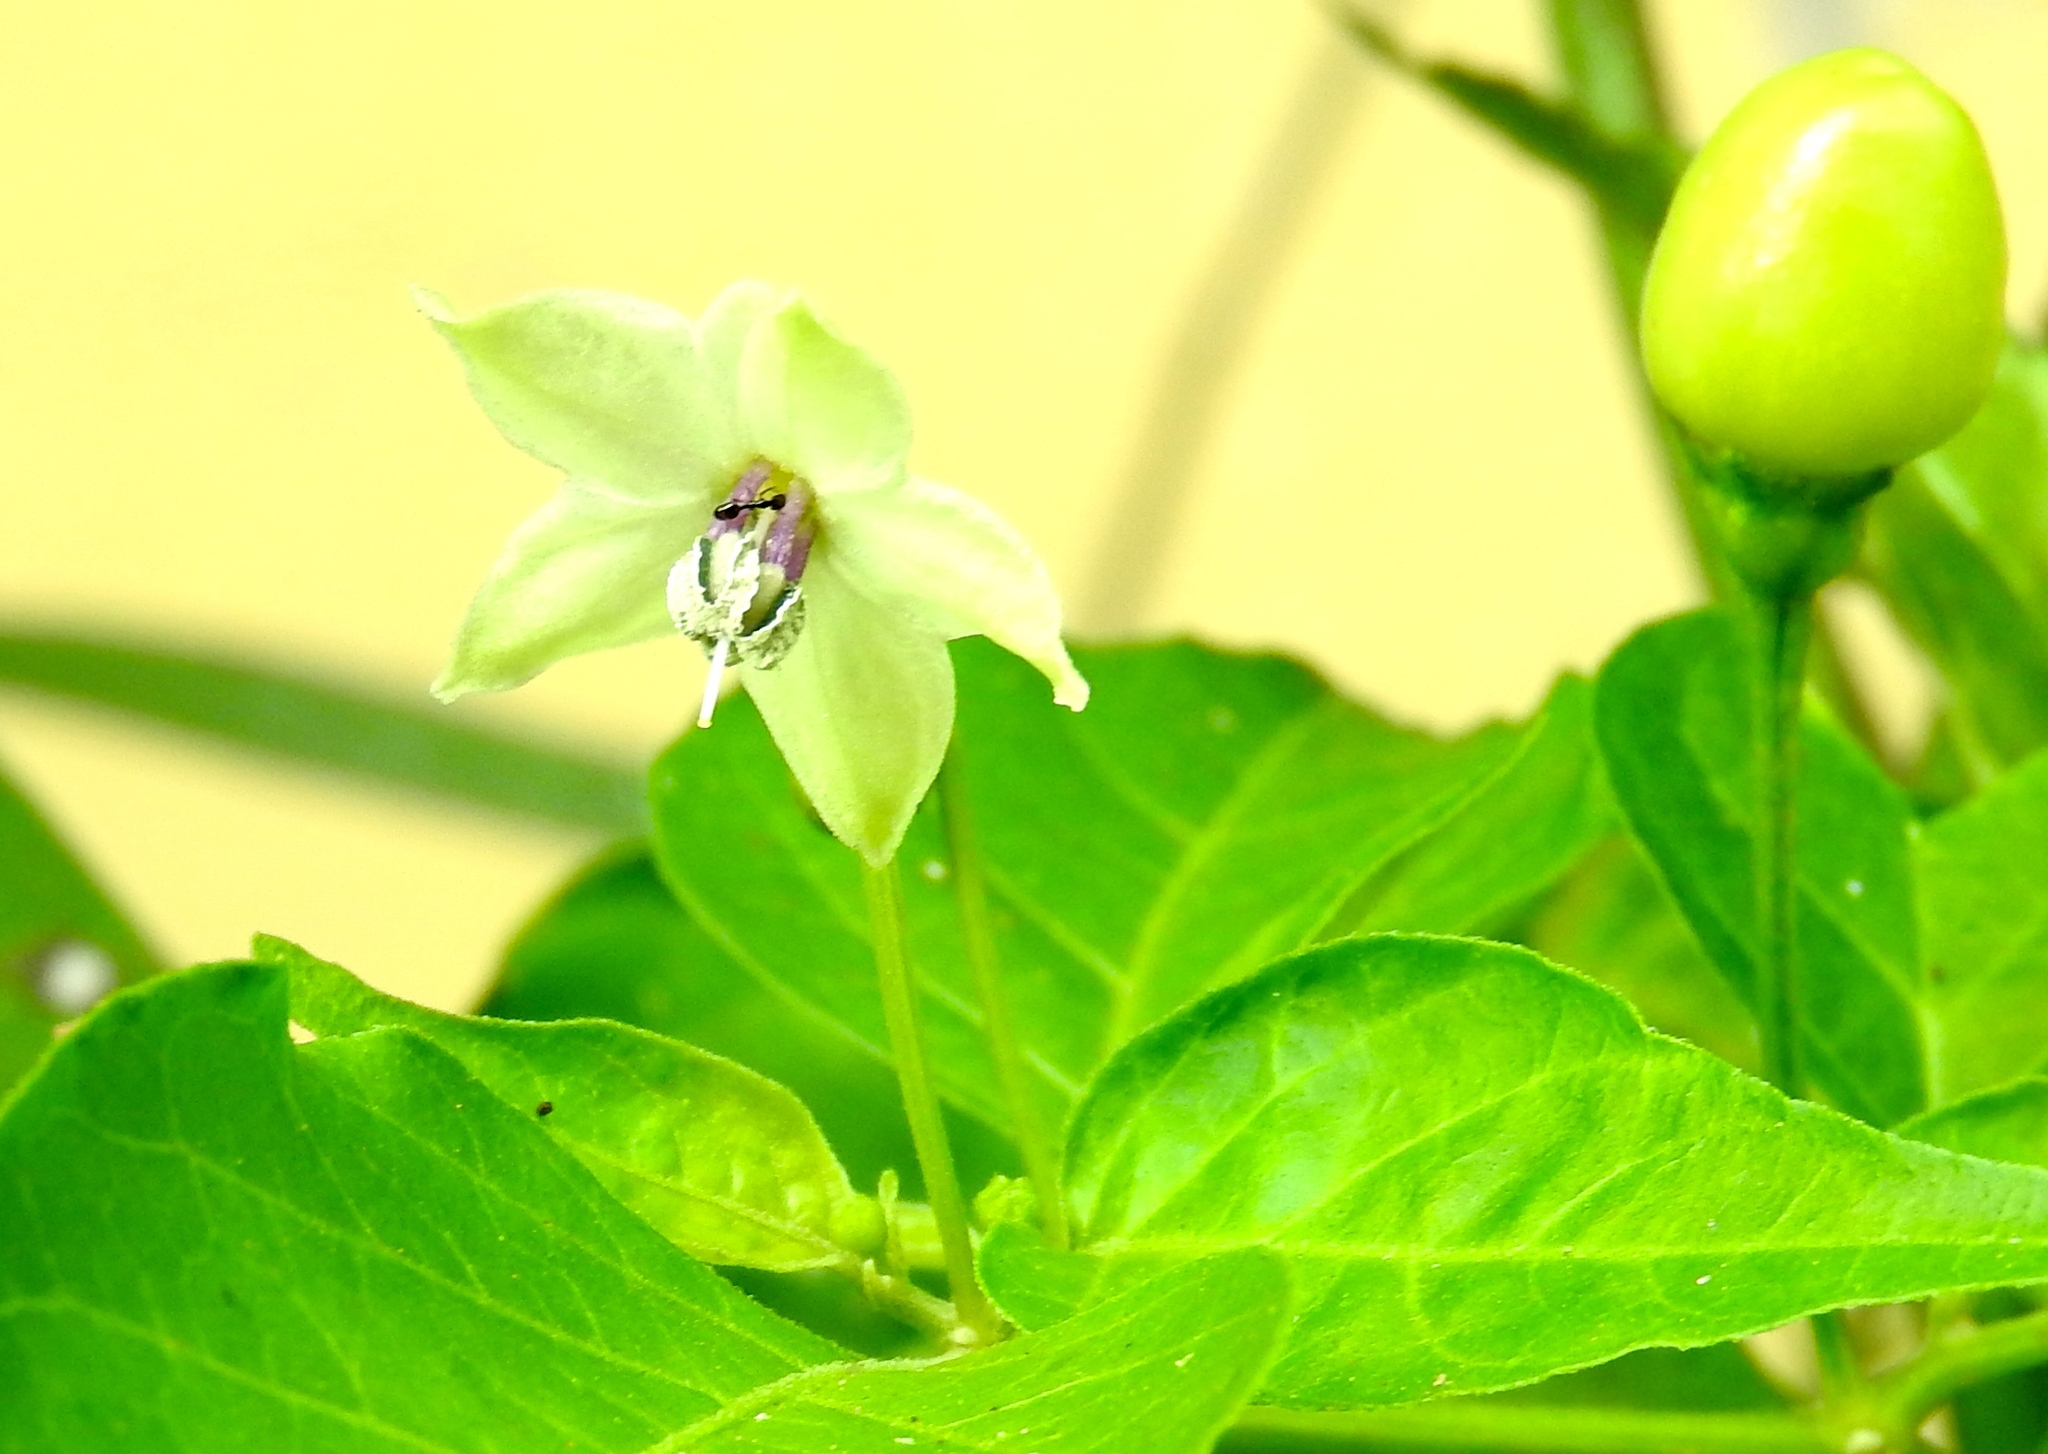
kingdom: Plantae
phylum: Tracheophyta
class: Magnoliopsida
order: Solanales
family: Solanaceae
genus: Capsicum
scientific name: Capsicum annuum
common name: Sweet pepper
